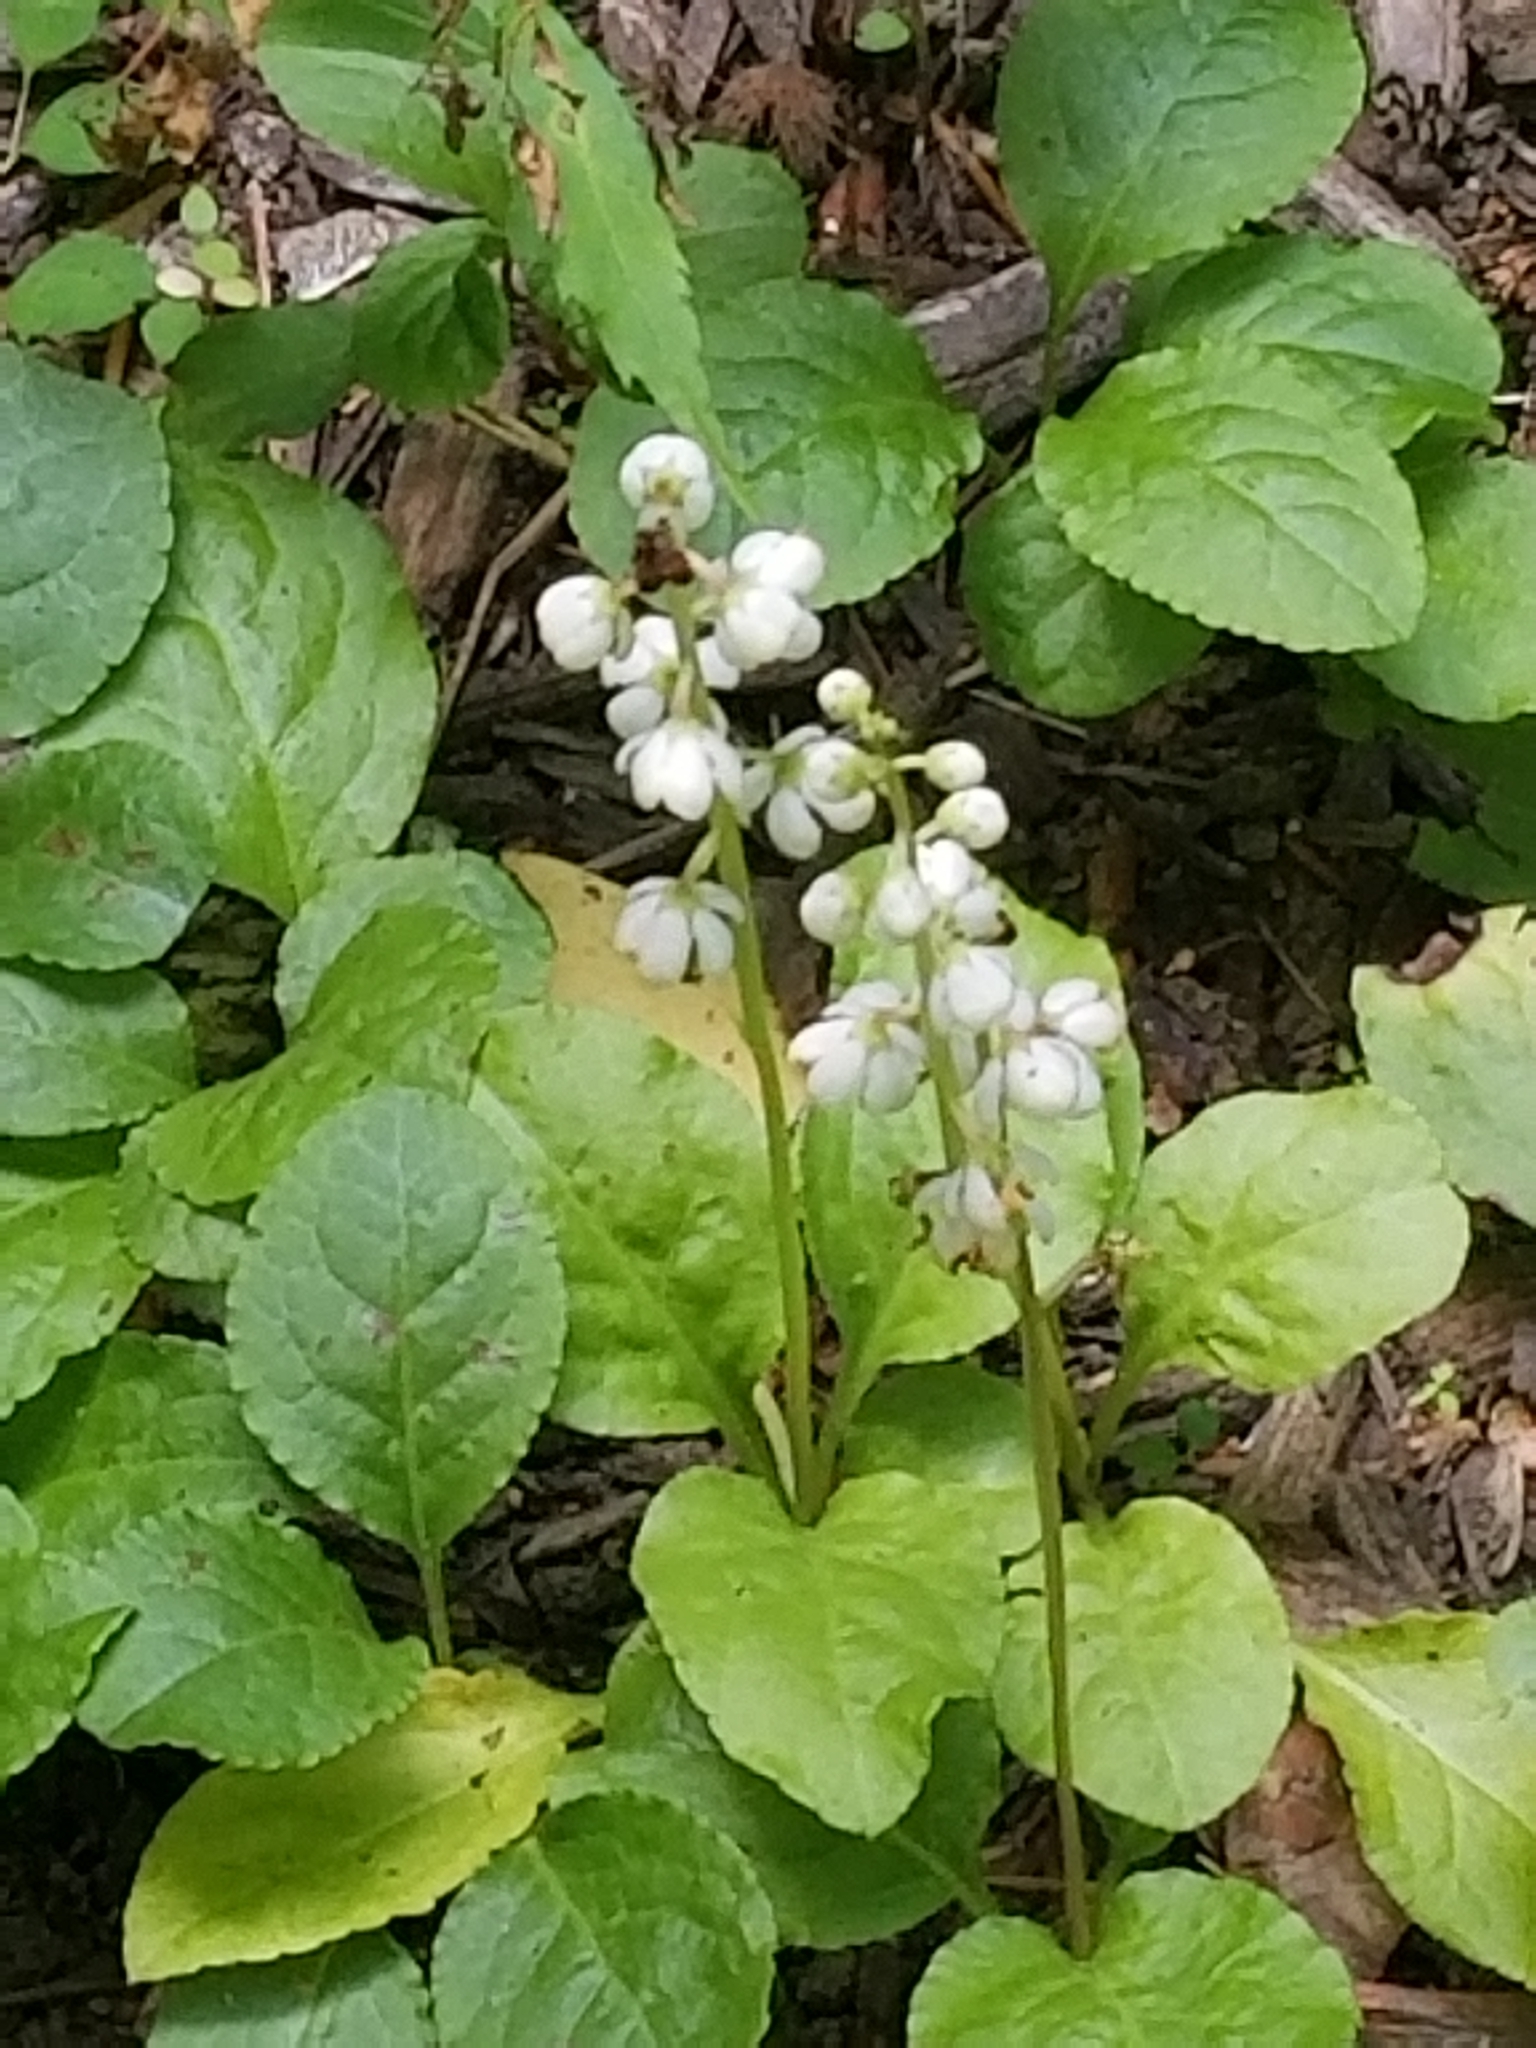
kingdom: Plantae
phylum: Tracheophyta
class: Magnoliopsida
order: Ericales
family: Ericaceae
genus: Pyrola
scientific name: Pyrola elliptica
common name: Shinleaf
